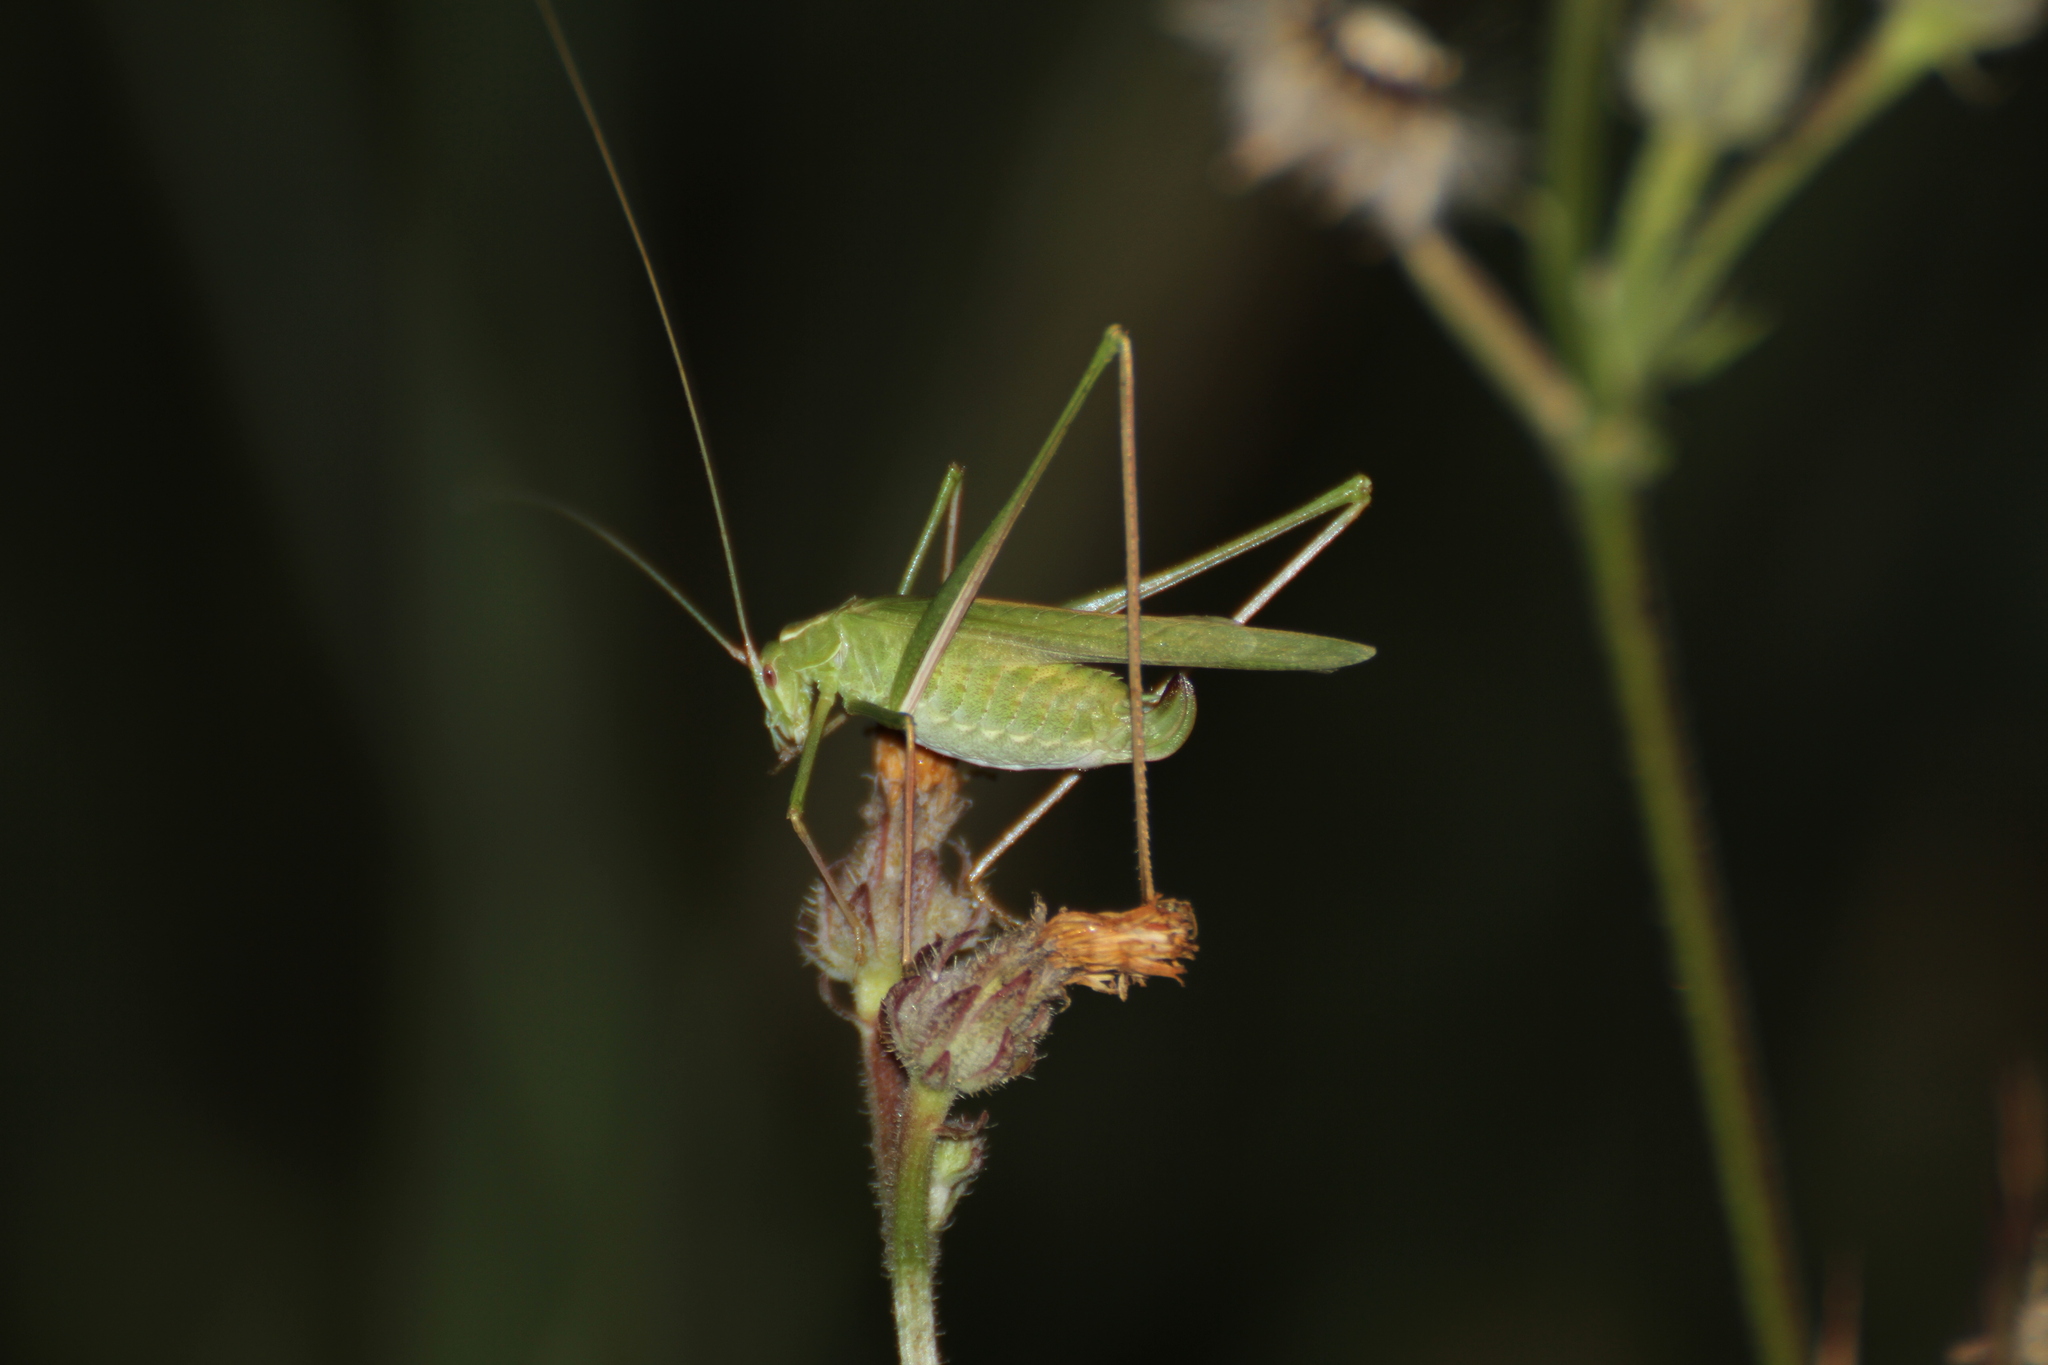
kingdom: Animalia
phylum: Arthropoda
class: Insecta
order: Orthoptera
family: Tettigoniidae
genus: Tylopsis
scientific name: Tylopsis lilifolia
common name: Lily bush-cricket
